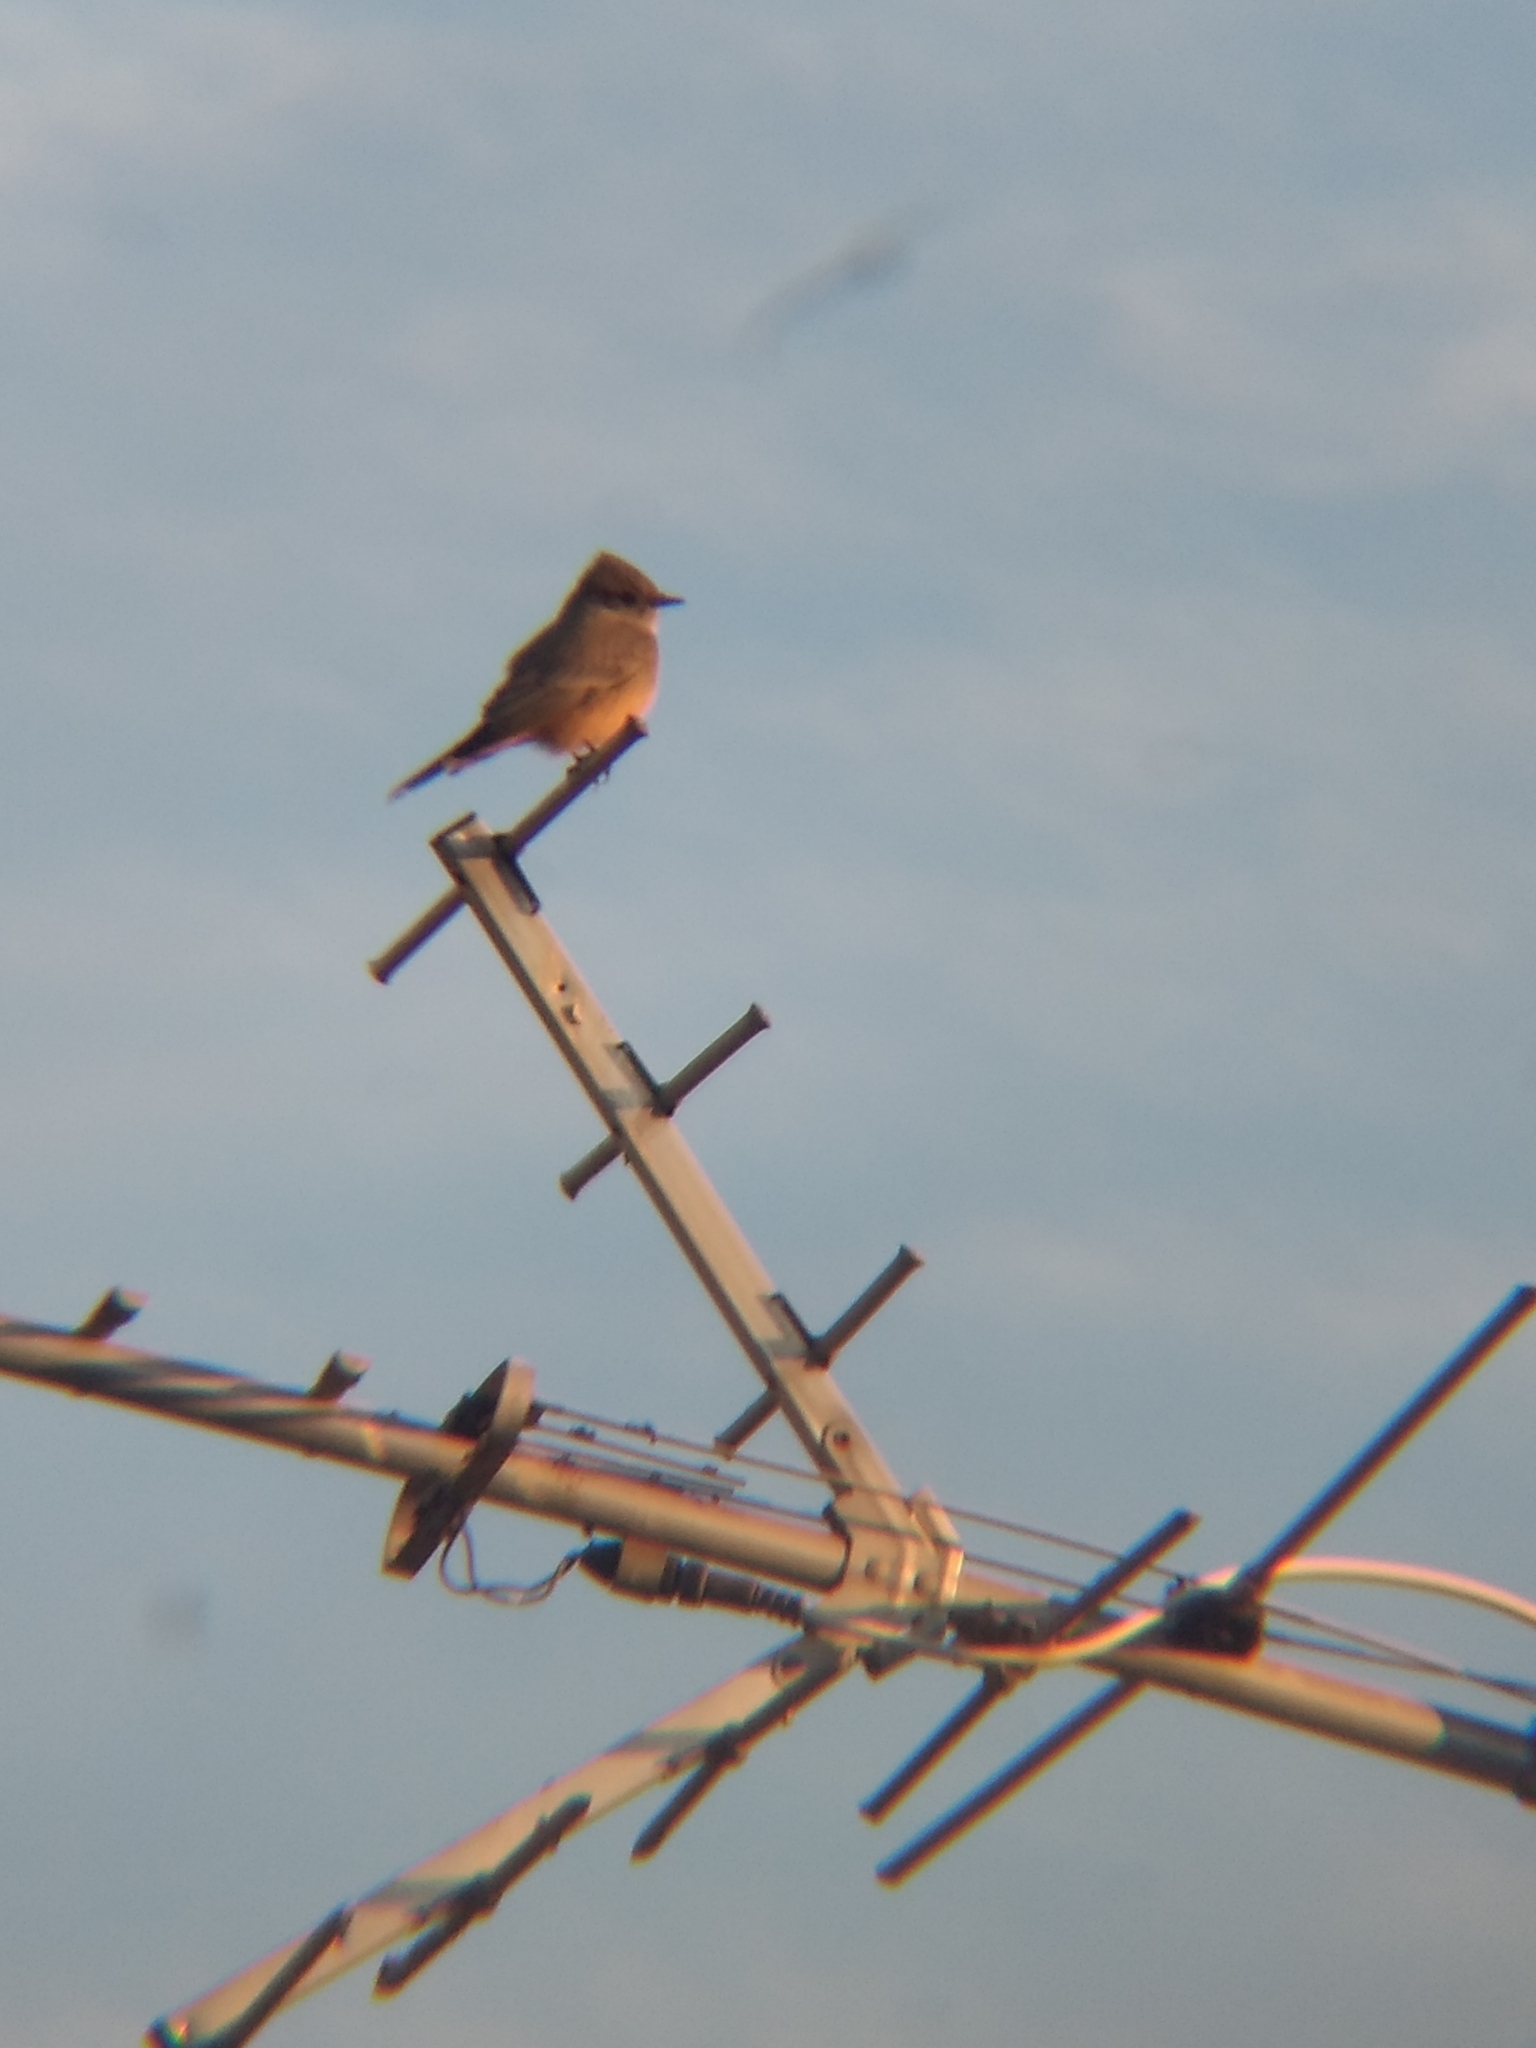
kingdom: Animalia
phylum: Chordata
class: Aves
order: Passeriformes
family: Tyrannidae
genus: Sayornis
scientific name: Sayornis saya
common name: Say's phoebe
